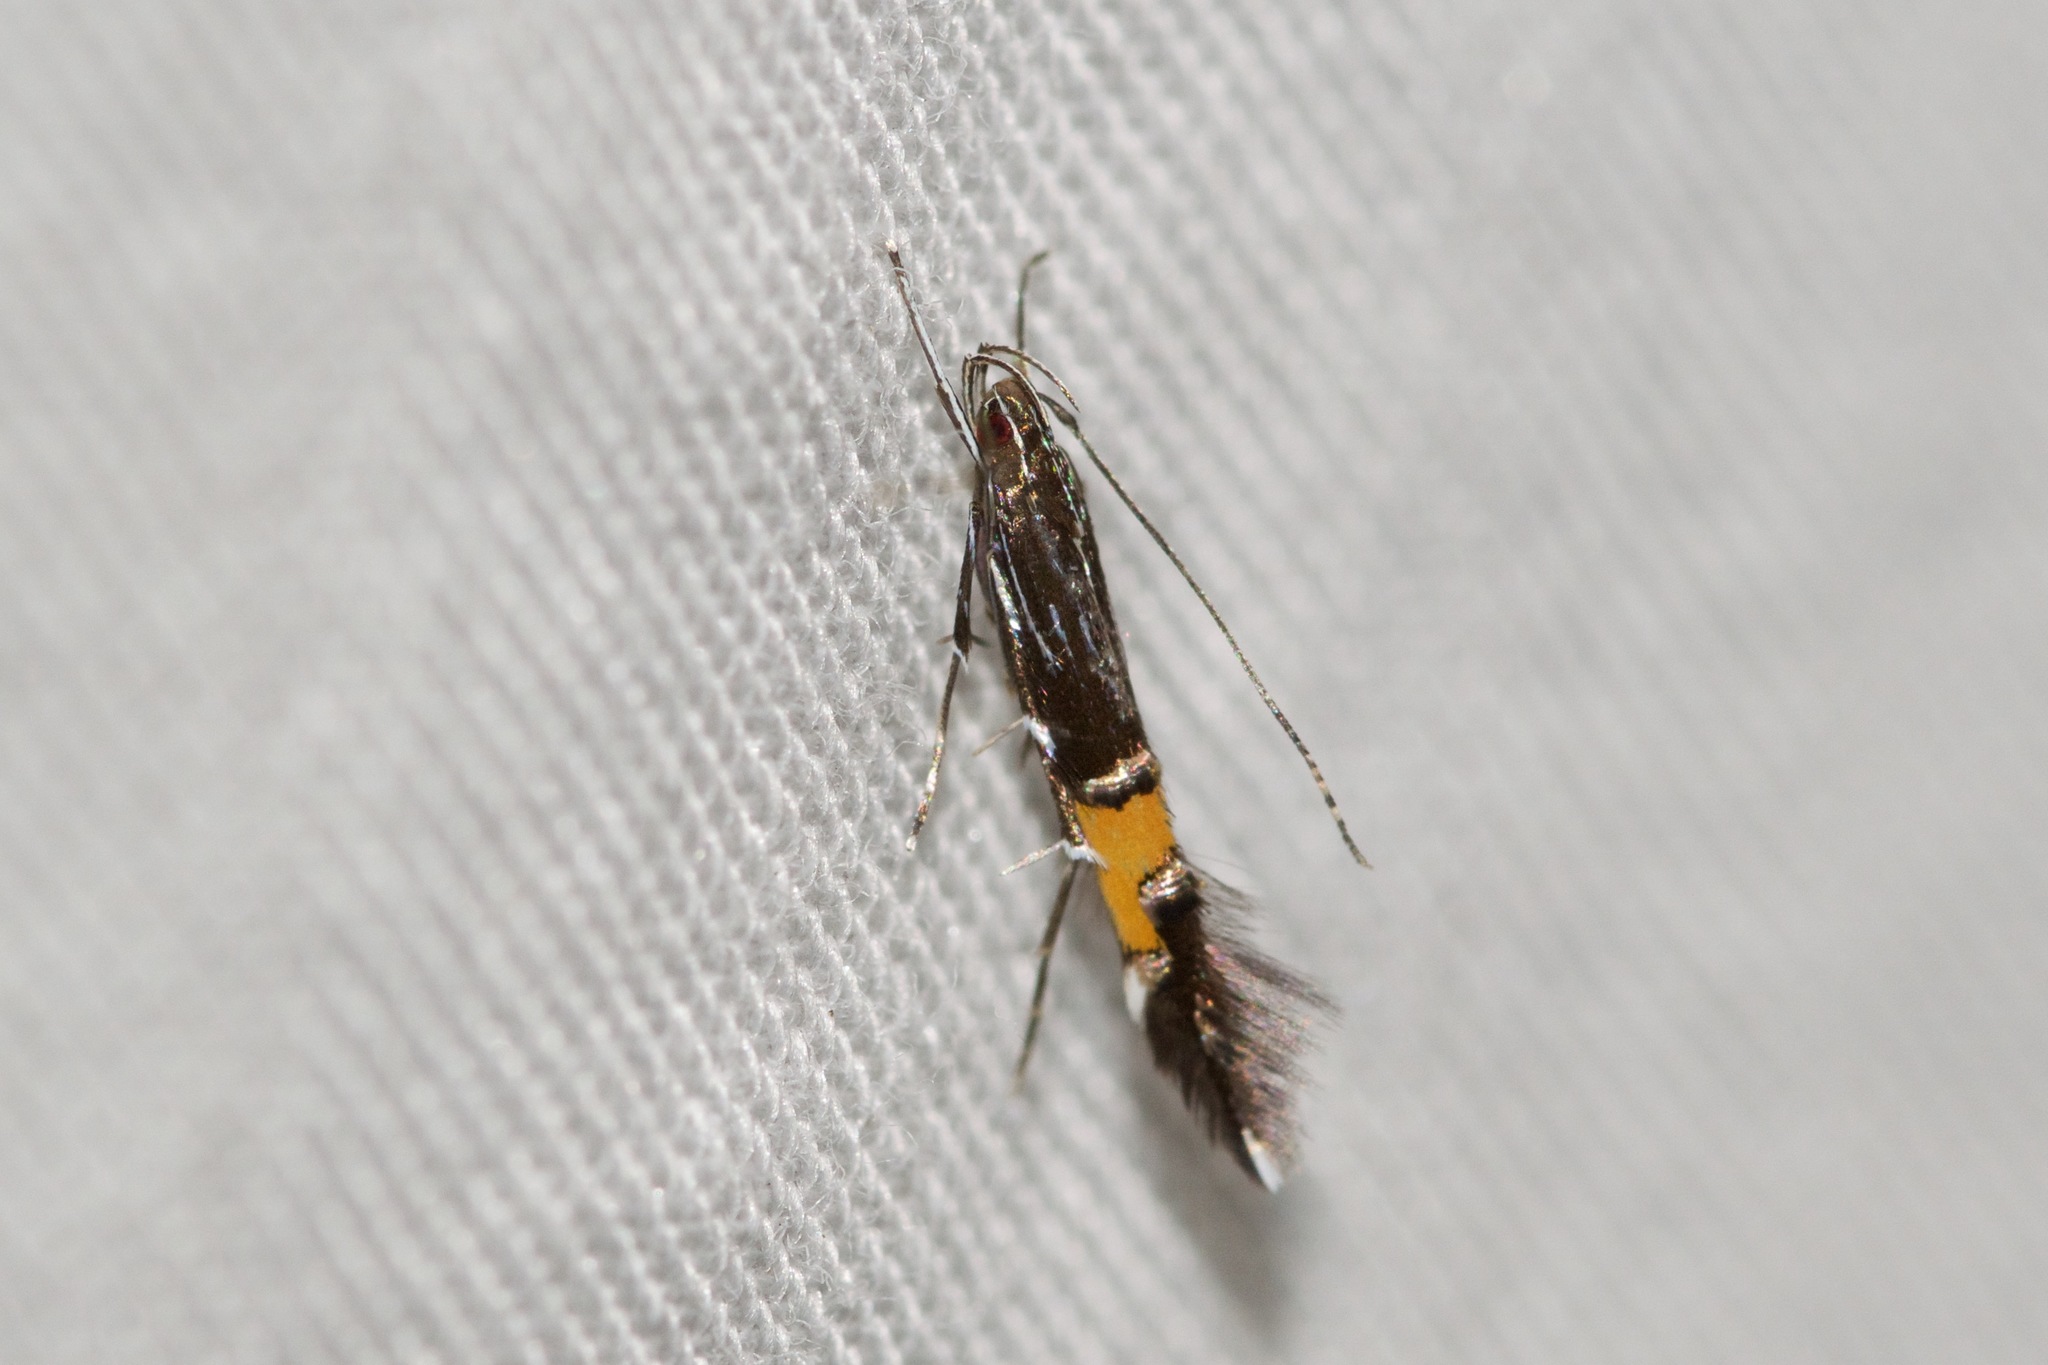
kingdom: Animalia
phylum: Arthropoda
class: Insecta
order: Lepidoptera
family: Cosmopterigidae
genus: Cosmopterix
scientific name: Cosmopterix montisella
